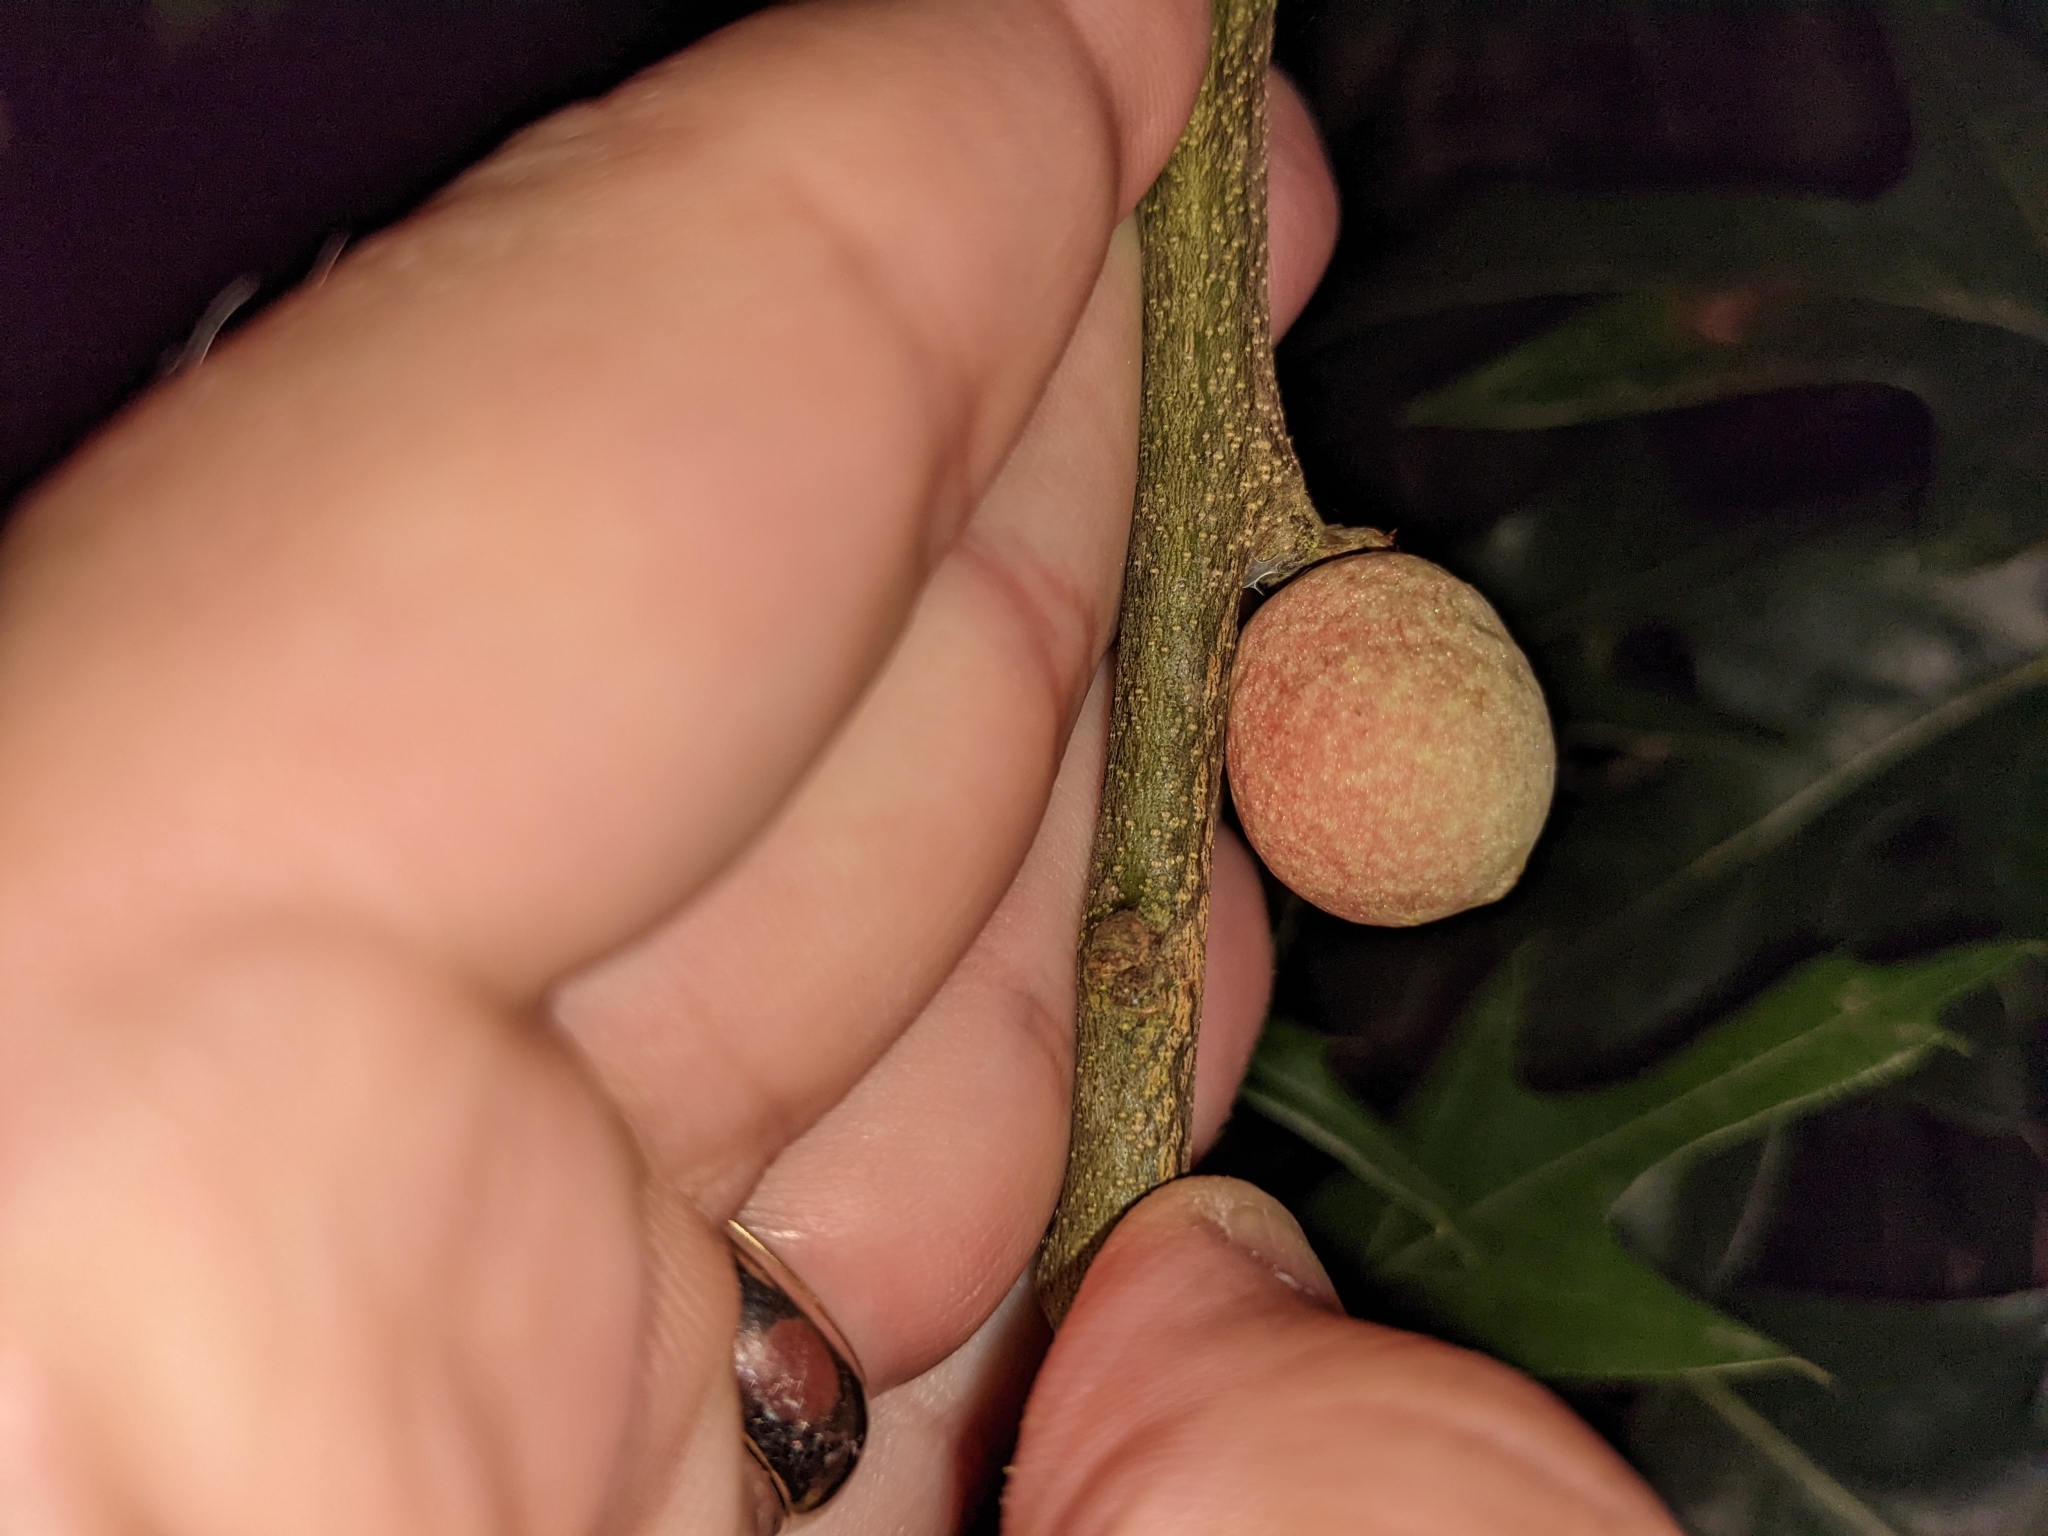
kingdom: Animalia
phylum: Arthropoda
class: Insecta
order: Hymenoptera
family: Cynipidae
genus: Amphibolips
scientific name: Amphibolips
